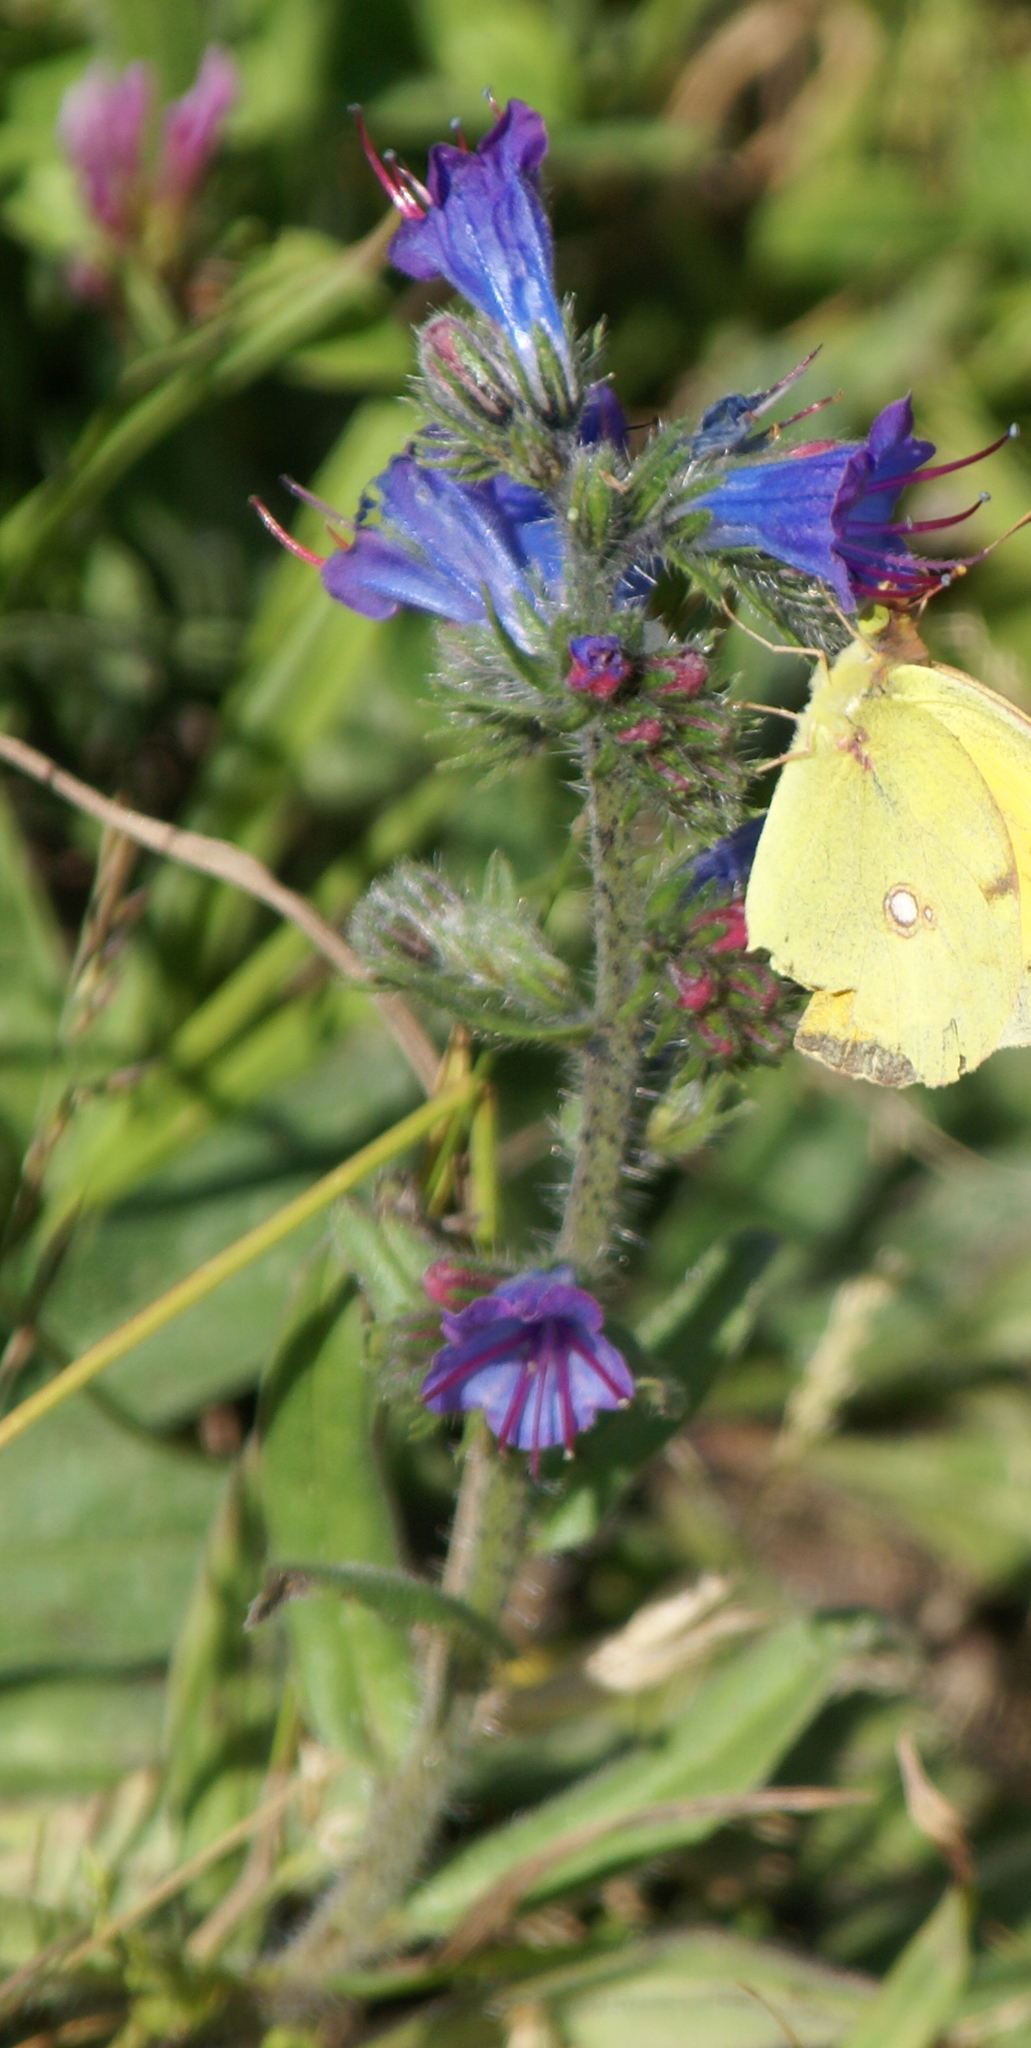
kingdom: Plantae
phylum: Tracheophyta
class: Magnoliopsida
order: Boraginales
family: Boraginaceae
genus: Echium
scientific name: Echium vulgare
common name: Common viper's bugloss
